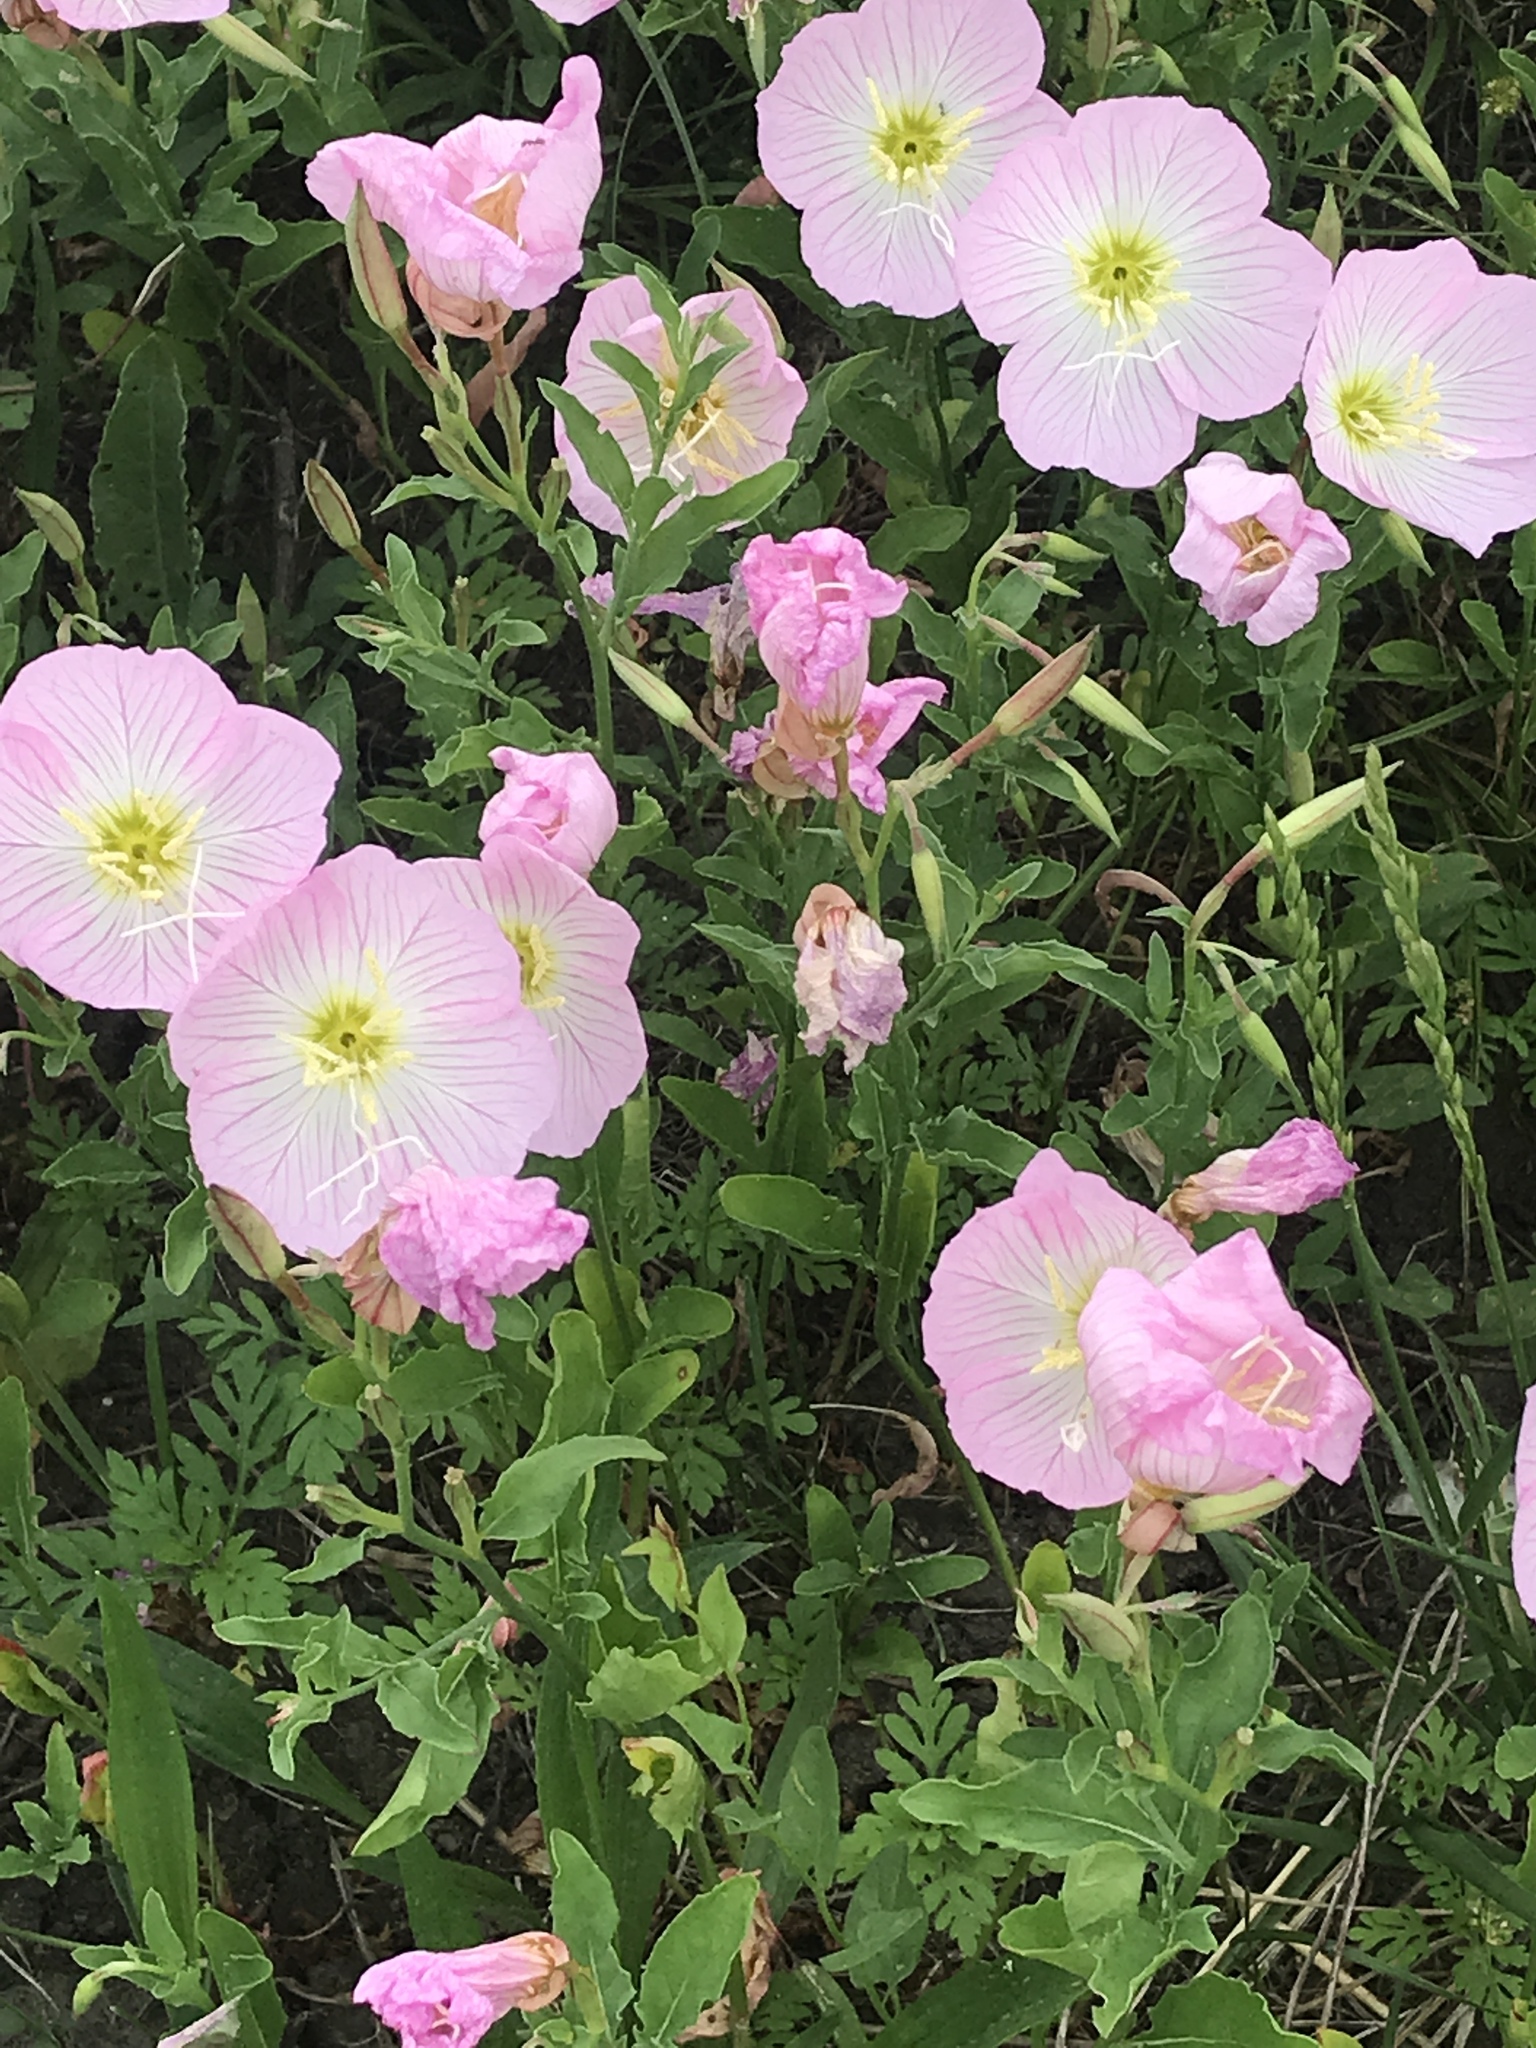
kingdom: Plantae
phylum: Tracheophyta
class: Magnoliopsida
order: Myrtales
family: Onagraceae
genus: Oenothera
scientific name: Oenothera speciosa
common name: White evening-primrose
